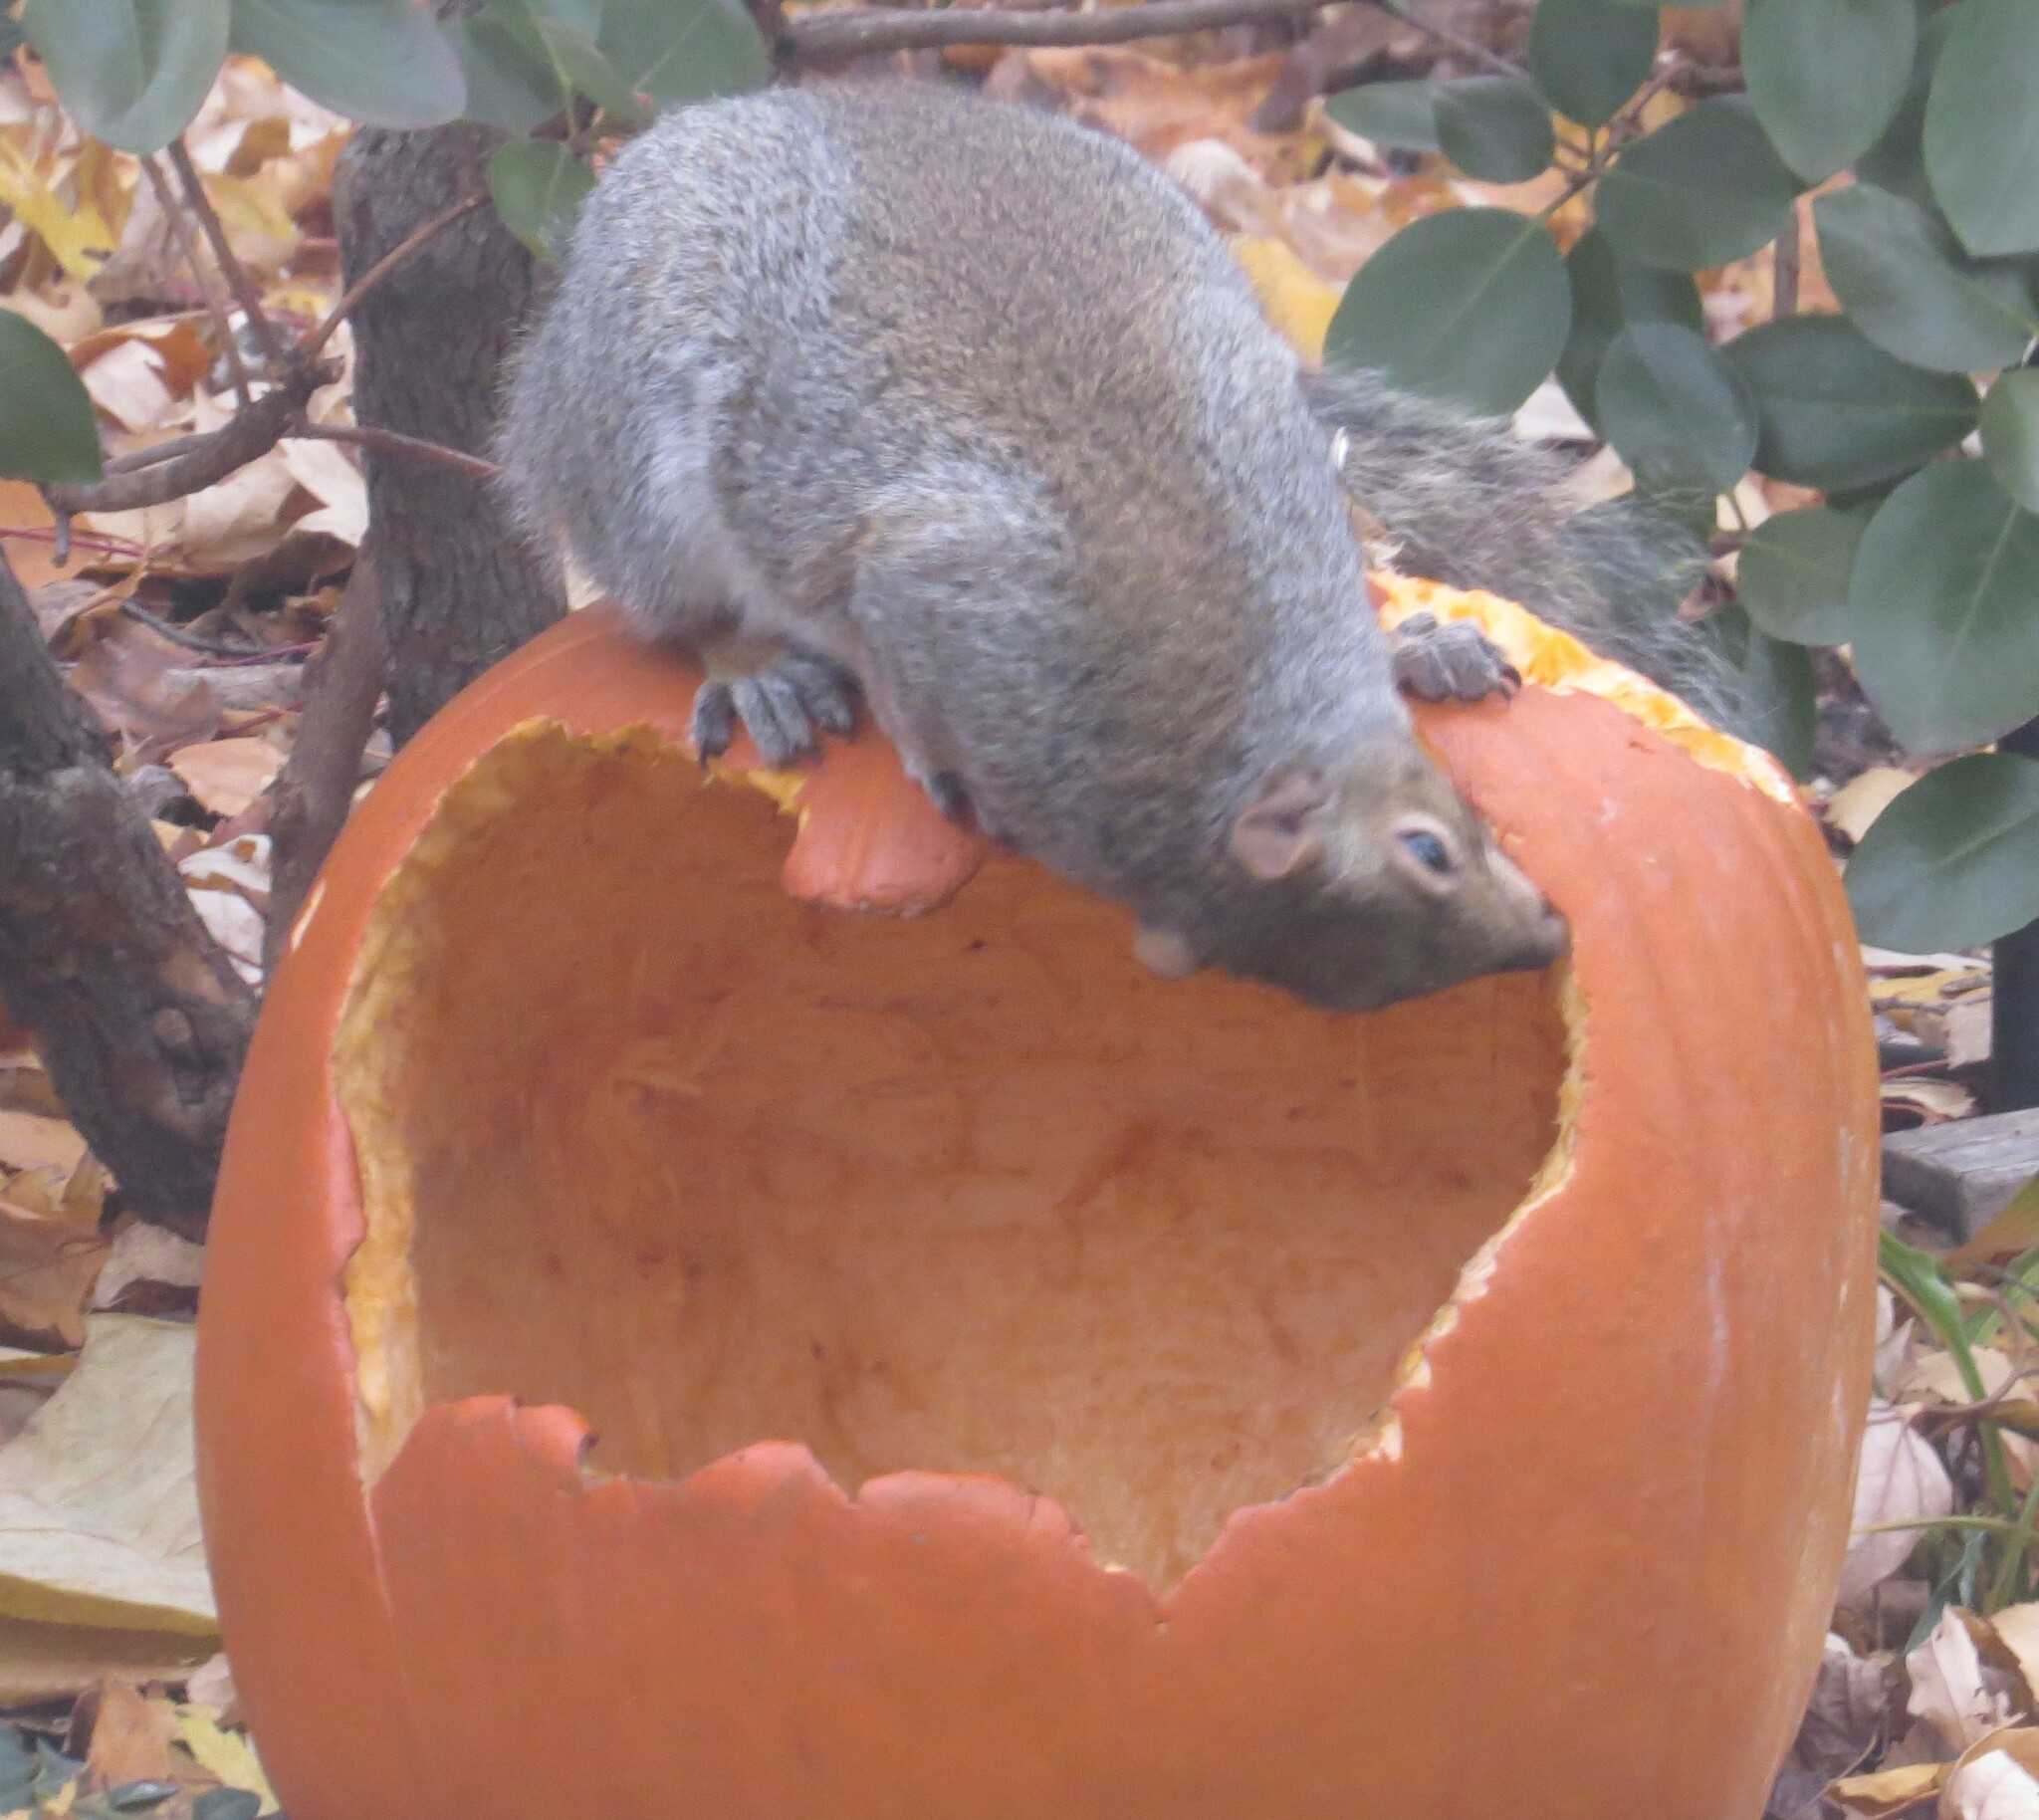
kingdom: Animalia
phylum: Chordata
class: Mammalia
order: Rodentia
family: Sciuridae
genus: Sciurus
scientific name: Sciurus carolinensis
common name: Eastern gray squirrel
